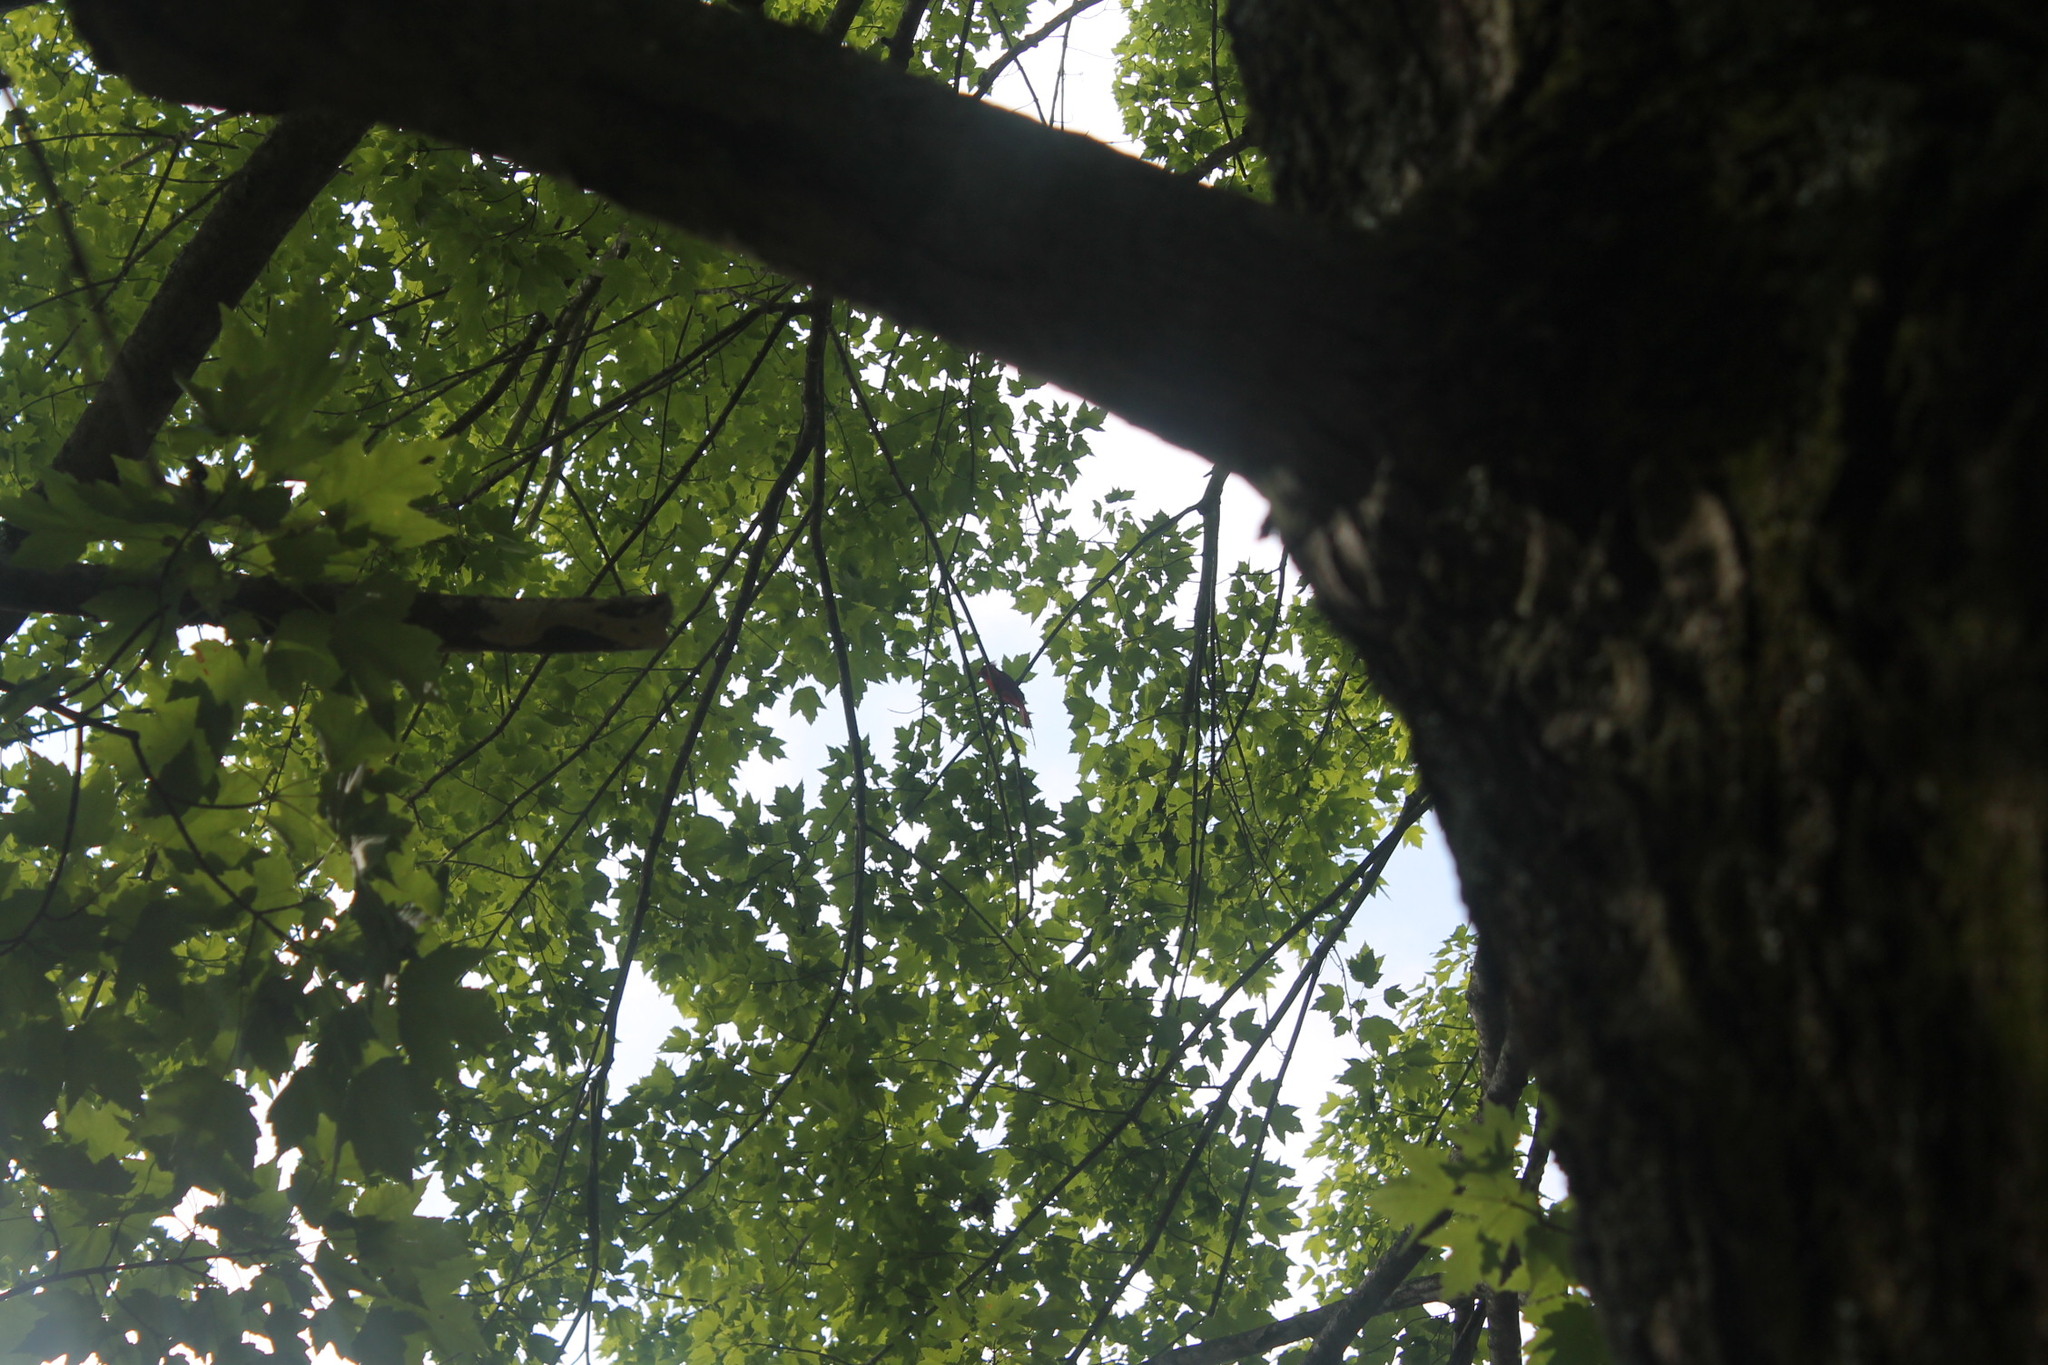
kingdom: Animalia
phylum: Chordata
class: Aves
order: Passeriformes
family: Cardinalidae
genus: Cardinalis
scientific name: Cardinalis cardinalis
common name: Northern cardinal
